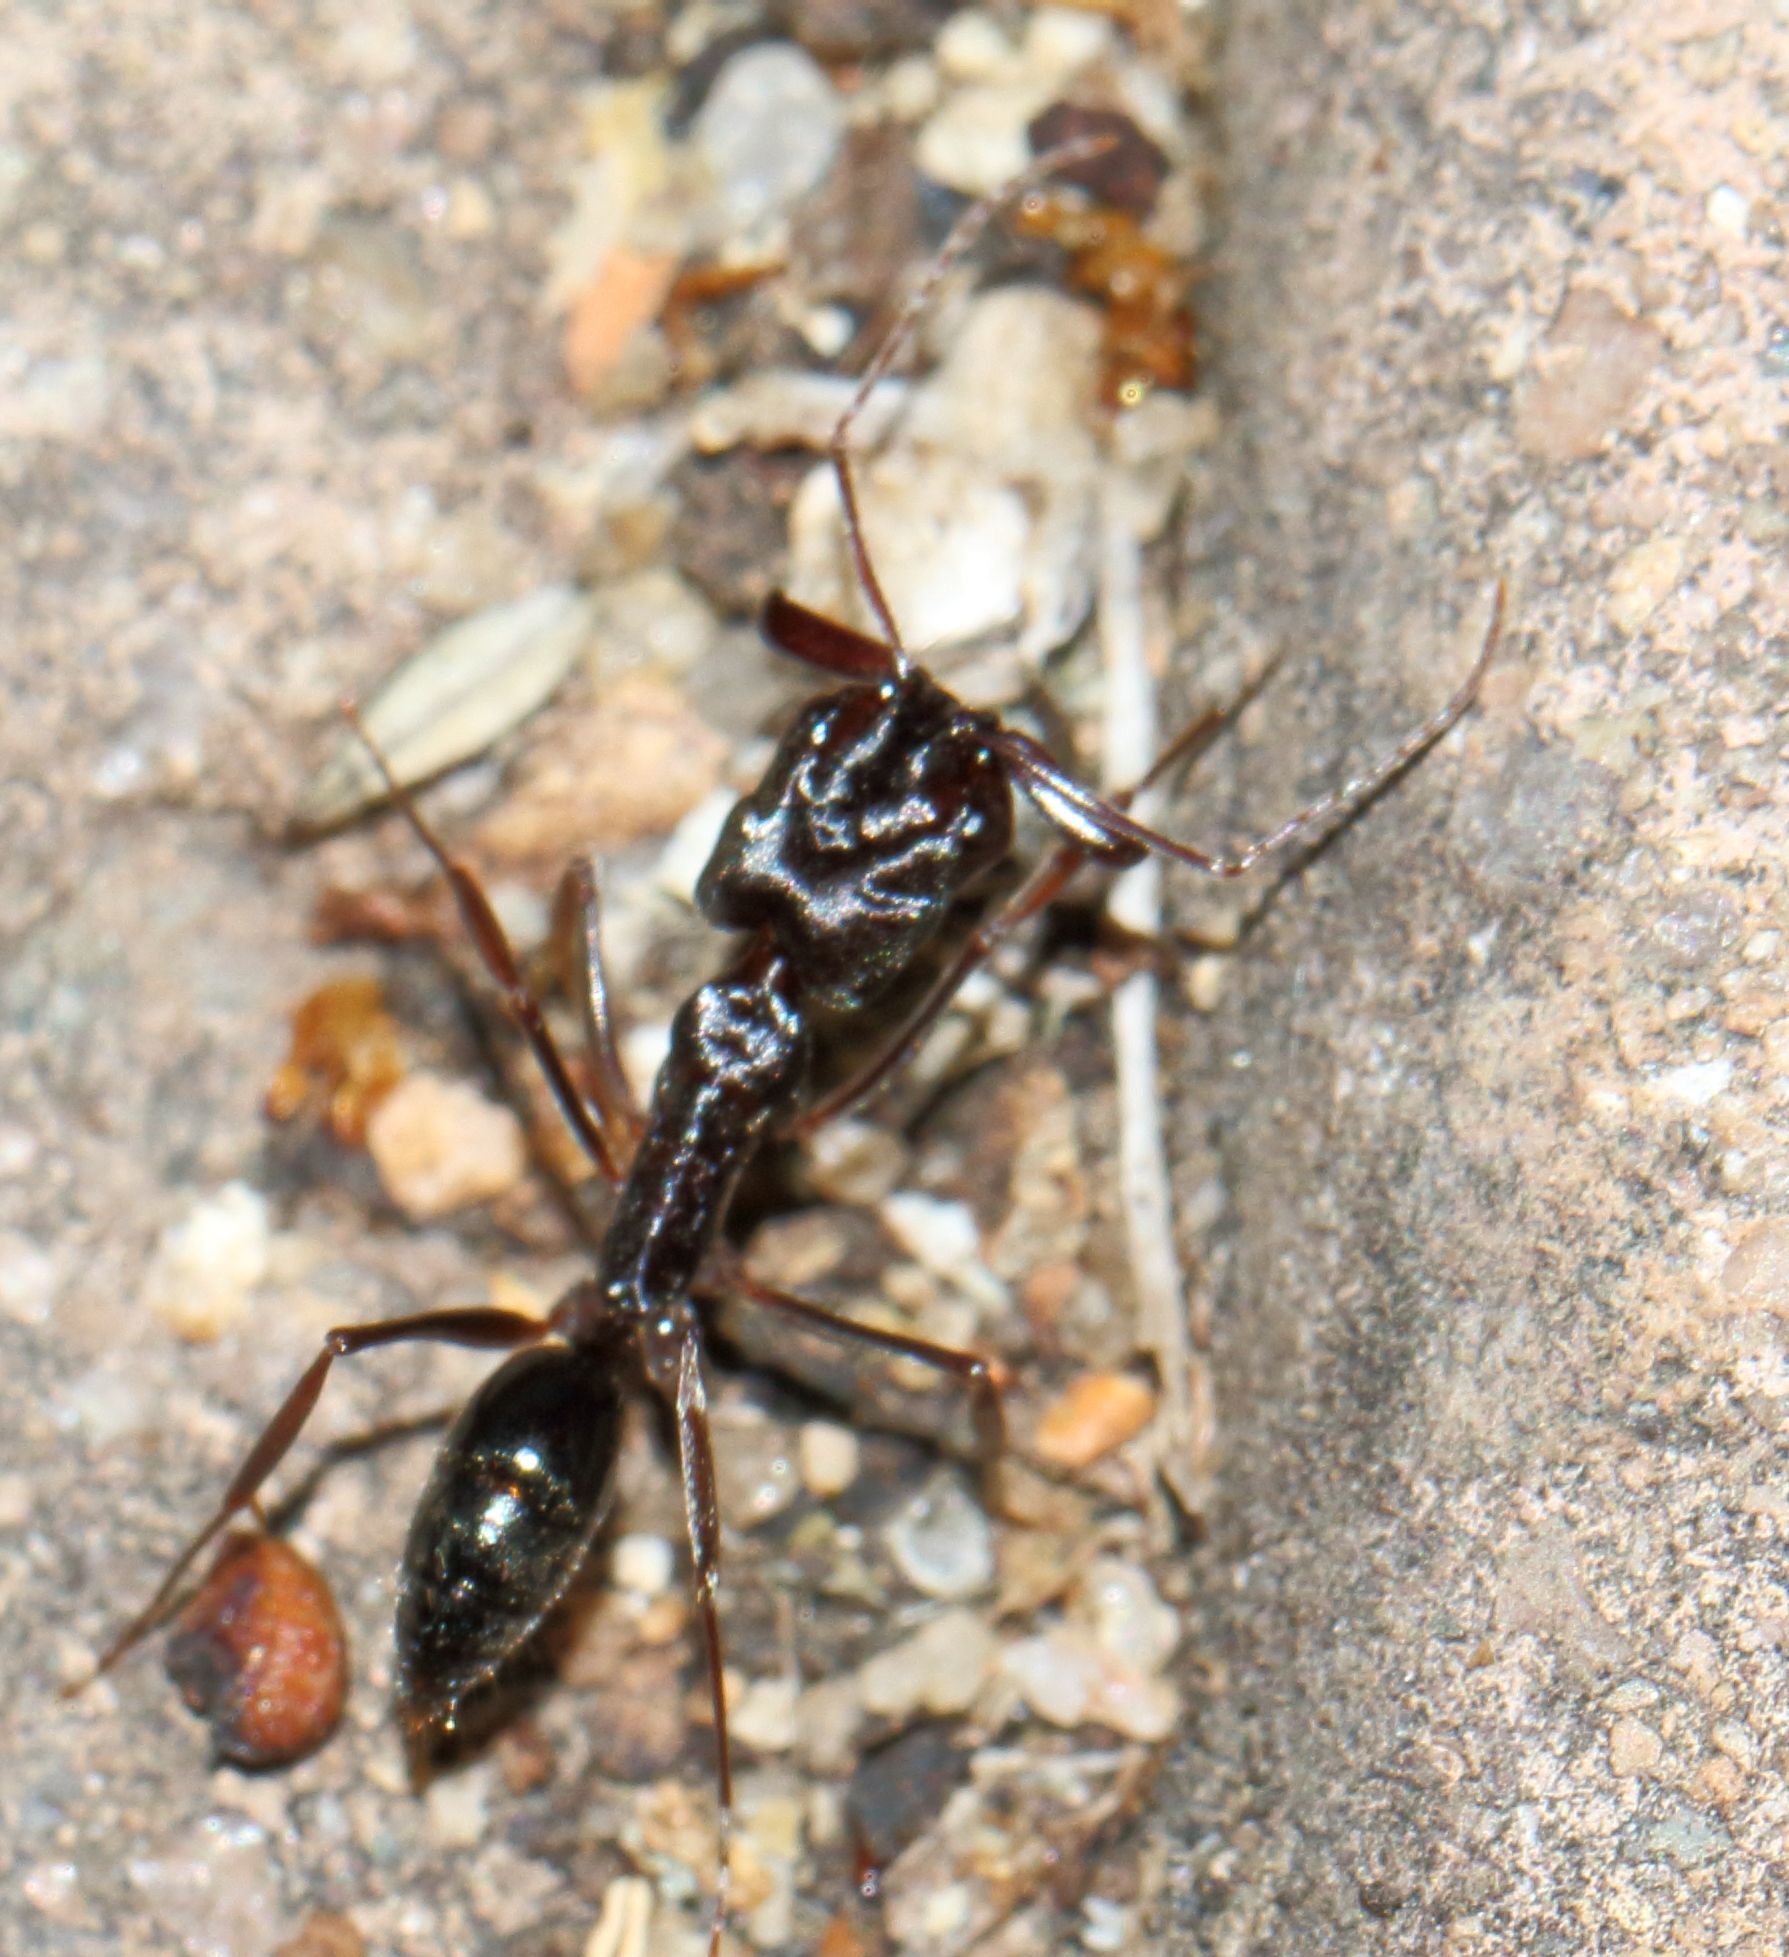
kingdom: Animalia
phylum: Arthropoda
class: Insecta
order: Hymenoptera
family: Formicidae
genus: Odontomachus
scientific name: Odontomachus troglodytes
